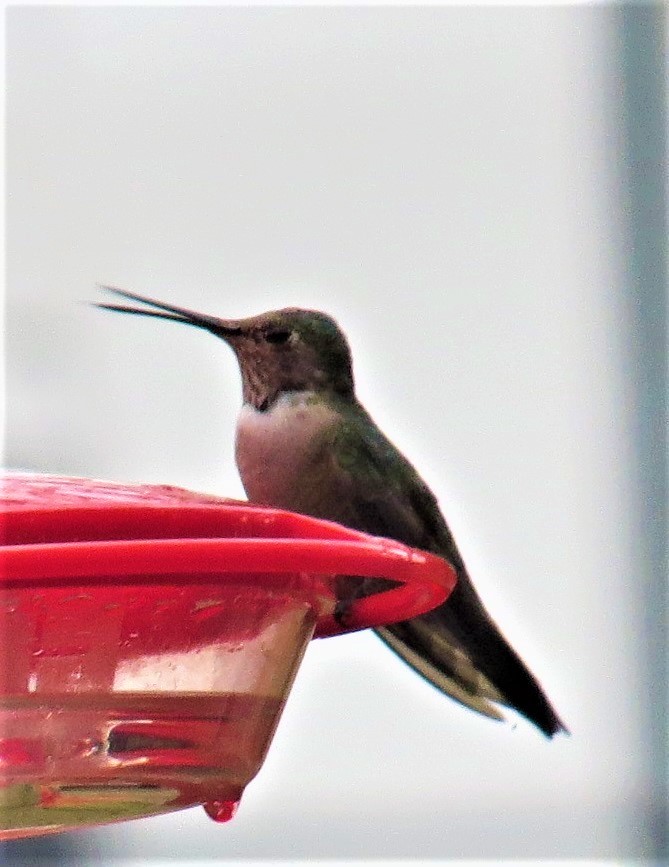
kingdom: Animalia
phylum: Chordata
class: Aves
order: Apodiformes
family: Trochilidae
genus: Selasphorus
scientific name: Selasphorus platycercus
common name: Broad-tailed hummingbird
